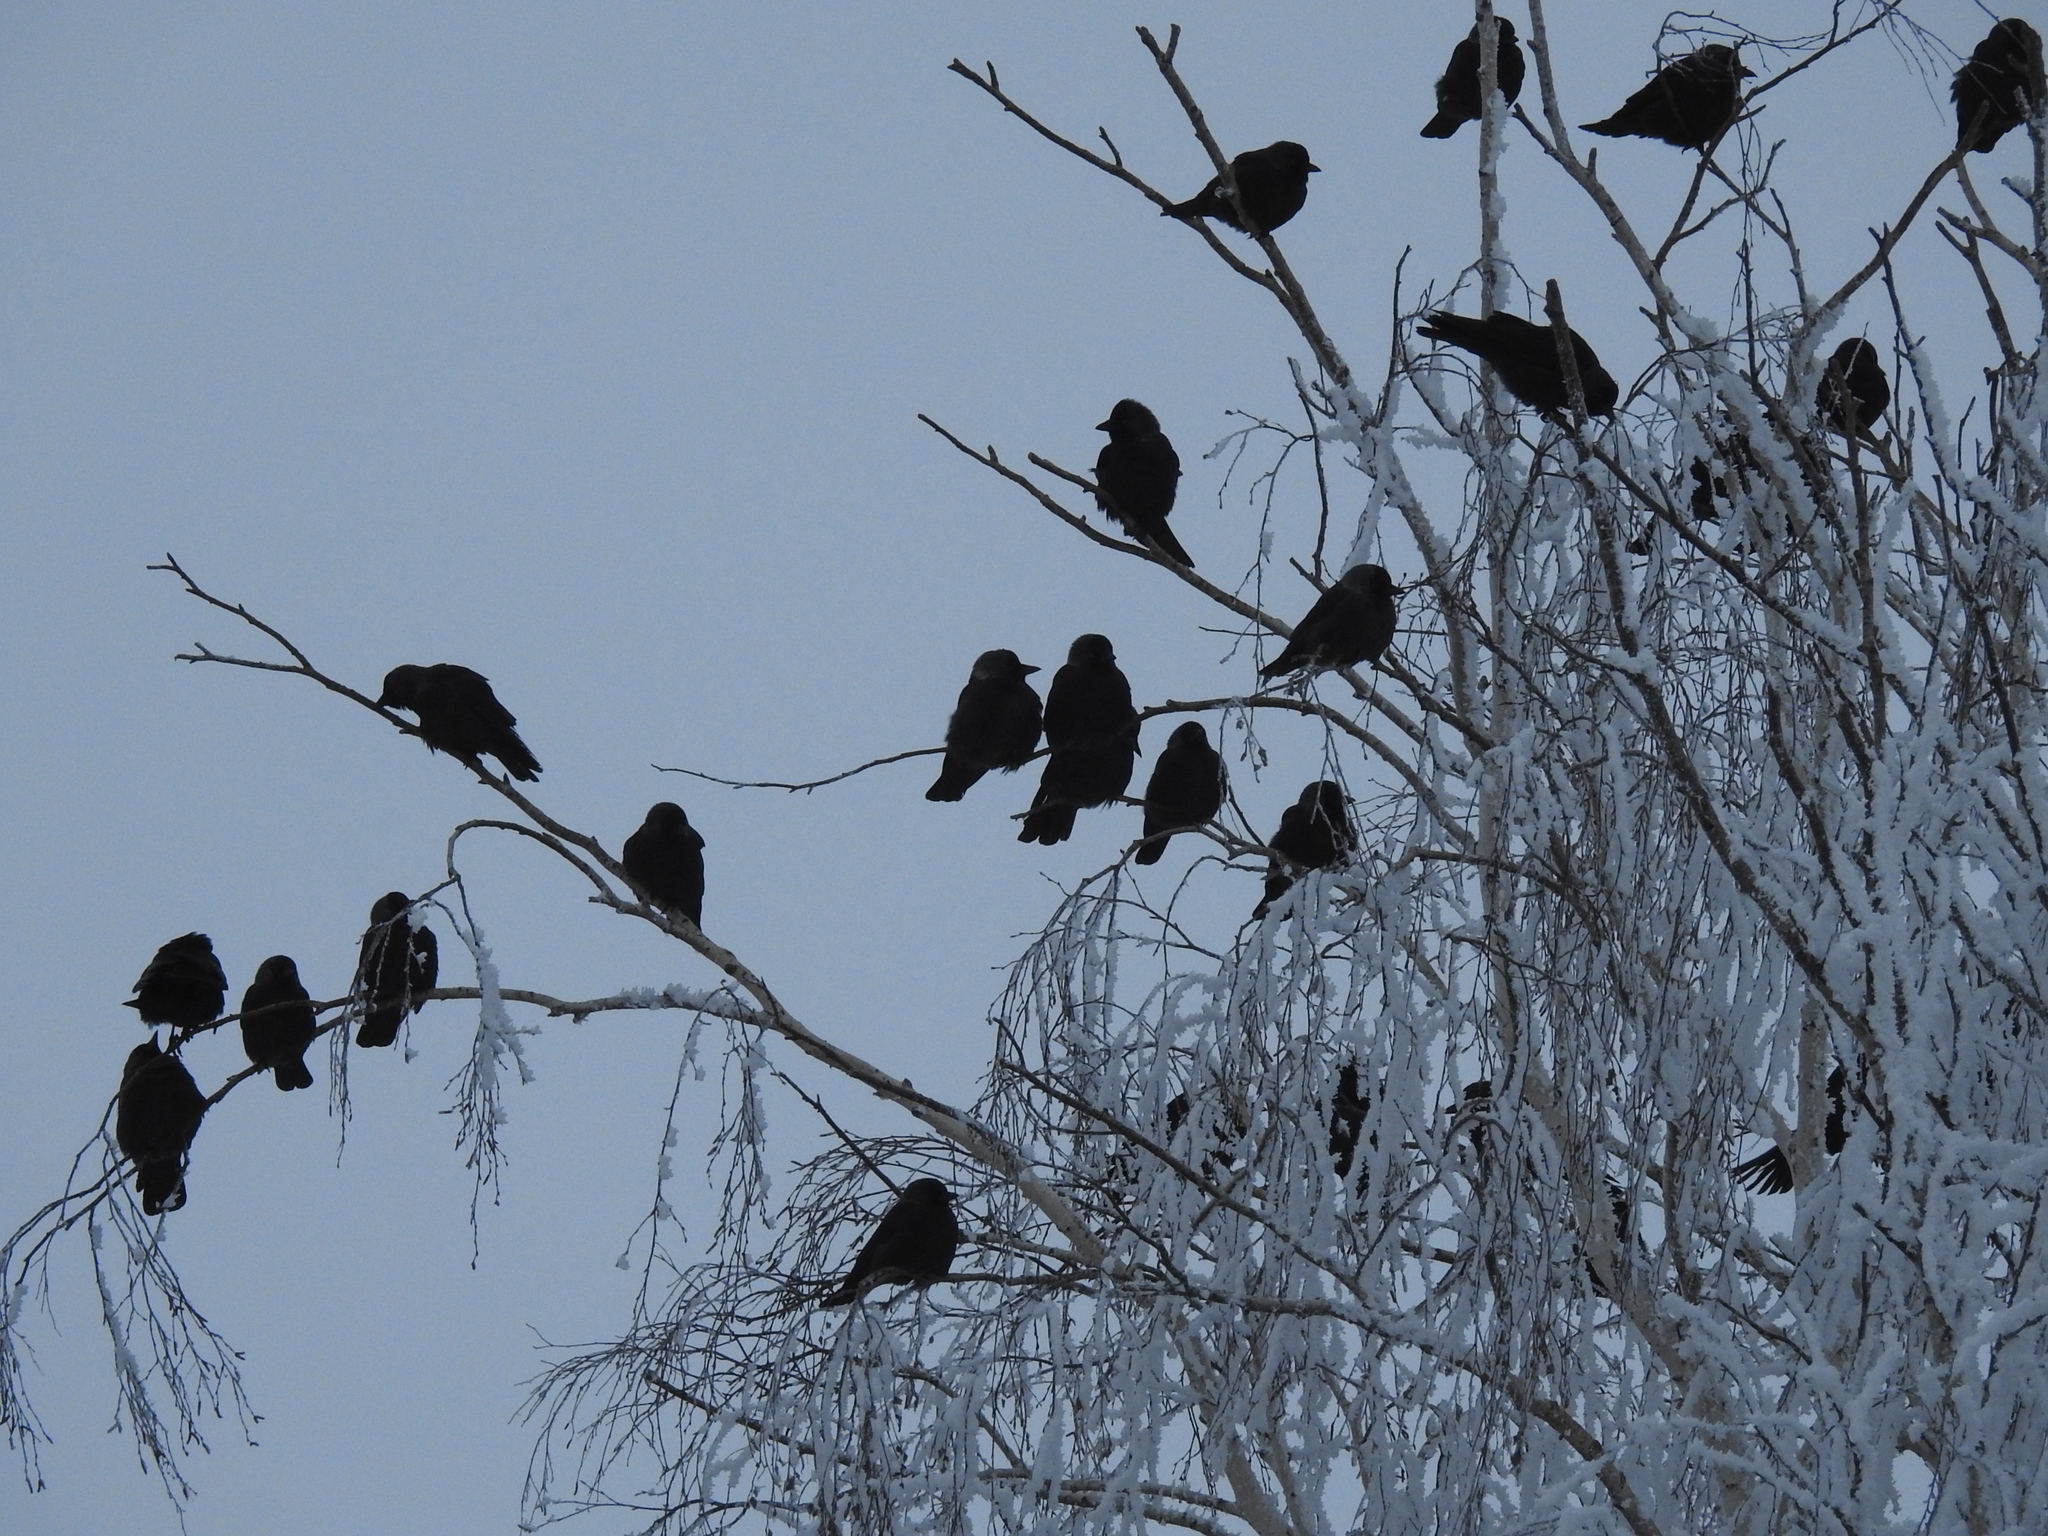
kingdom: Animalia
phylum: Chordata
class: Aves
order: Passeriformes
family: Corvidae
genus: Coloeus
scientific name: Coloeus monedula
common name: Western jackdaw
